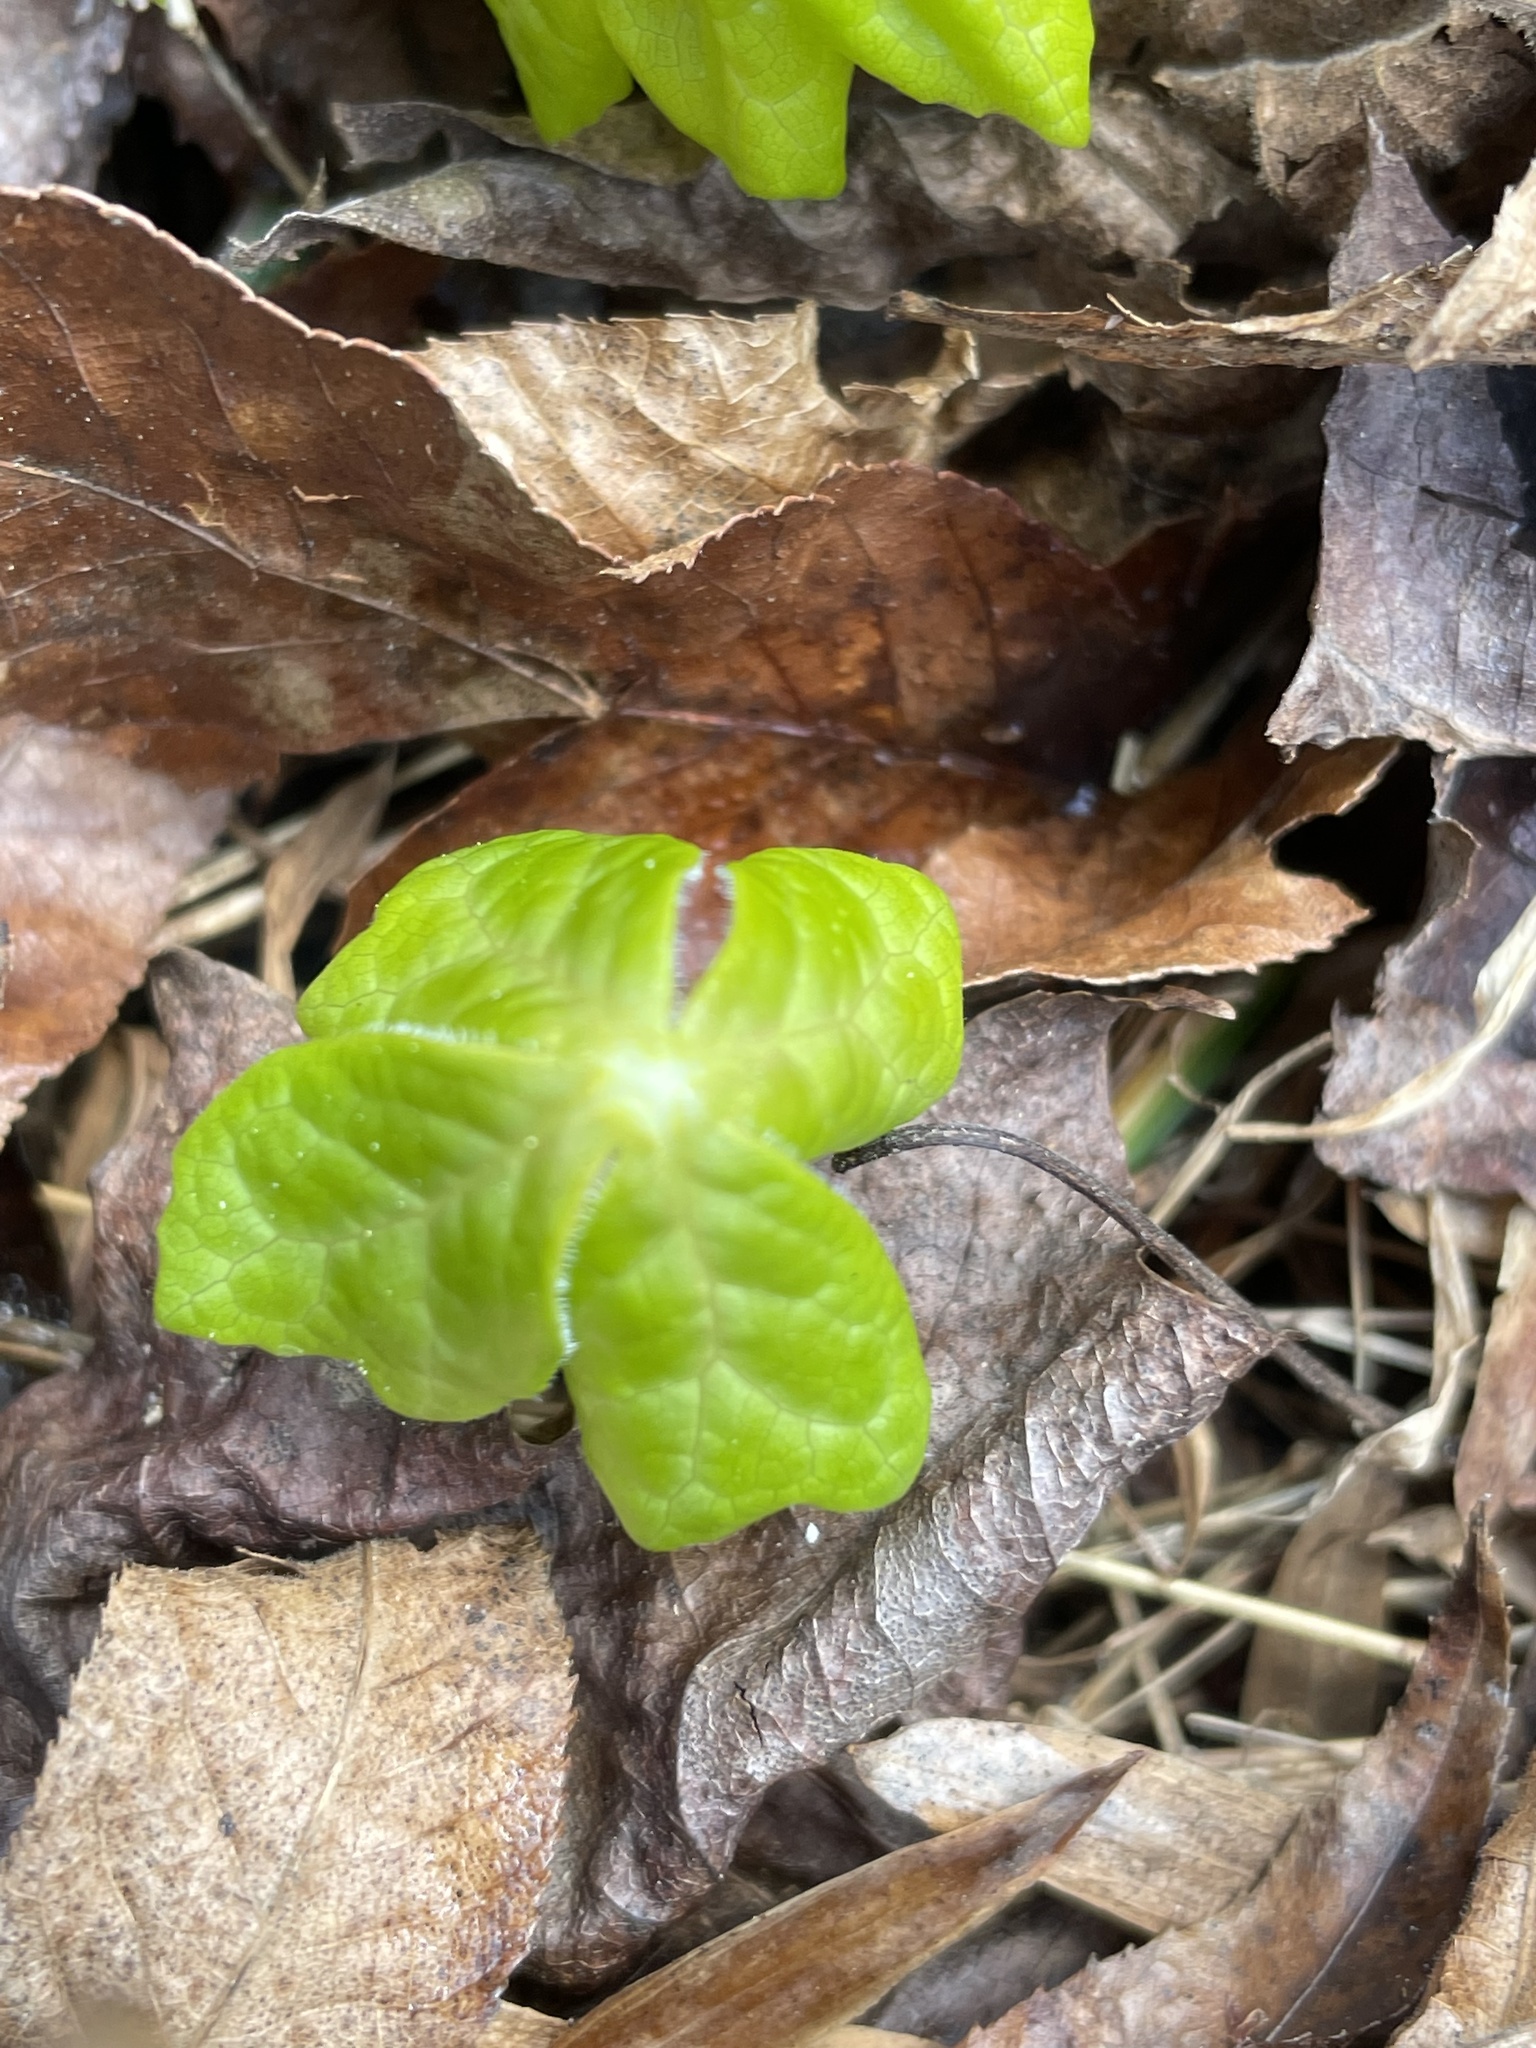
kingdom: Plantae
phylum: Tracheophyta
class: Magnoliopsida
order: Ranunculales
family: Berberidaceae
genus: Podophyllum
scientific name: Podophyllum peltatum
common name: Wild mandrake
